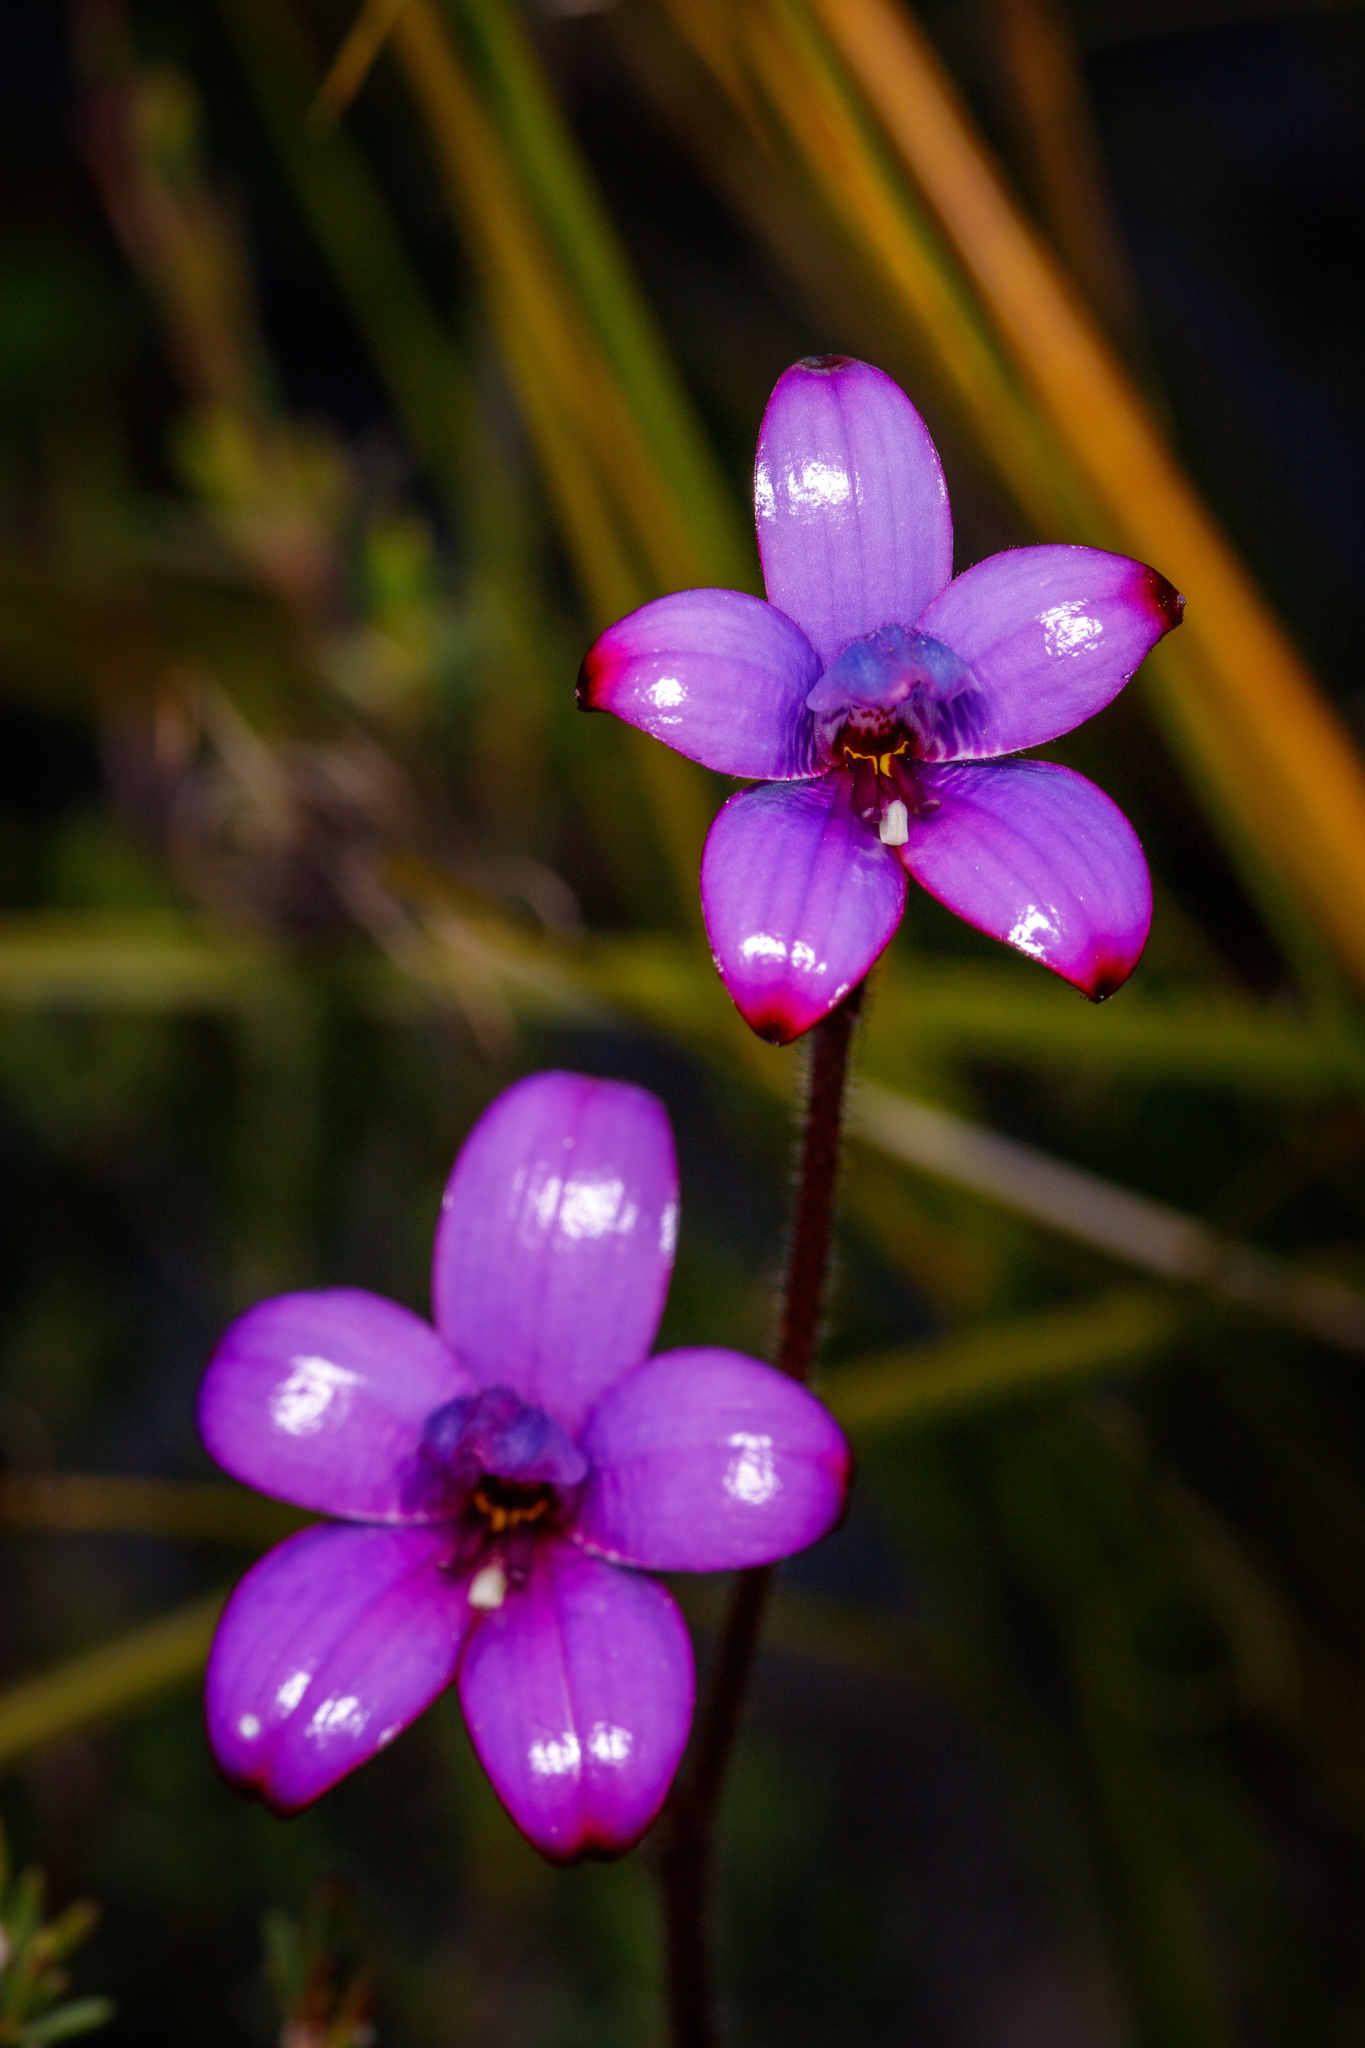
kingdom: Plantae
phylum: Tracheophyta
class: Liliopsida
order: Asparagales
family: Orchidaceae
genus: Caladenia
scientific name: Caladenia brunonis
